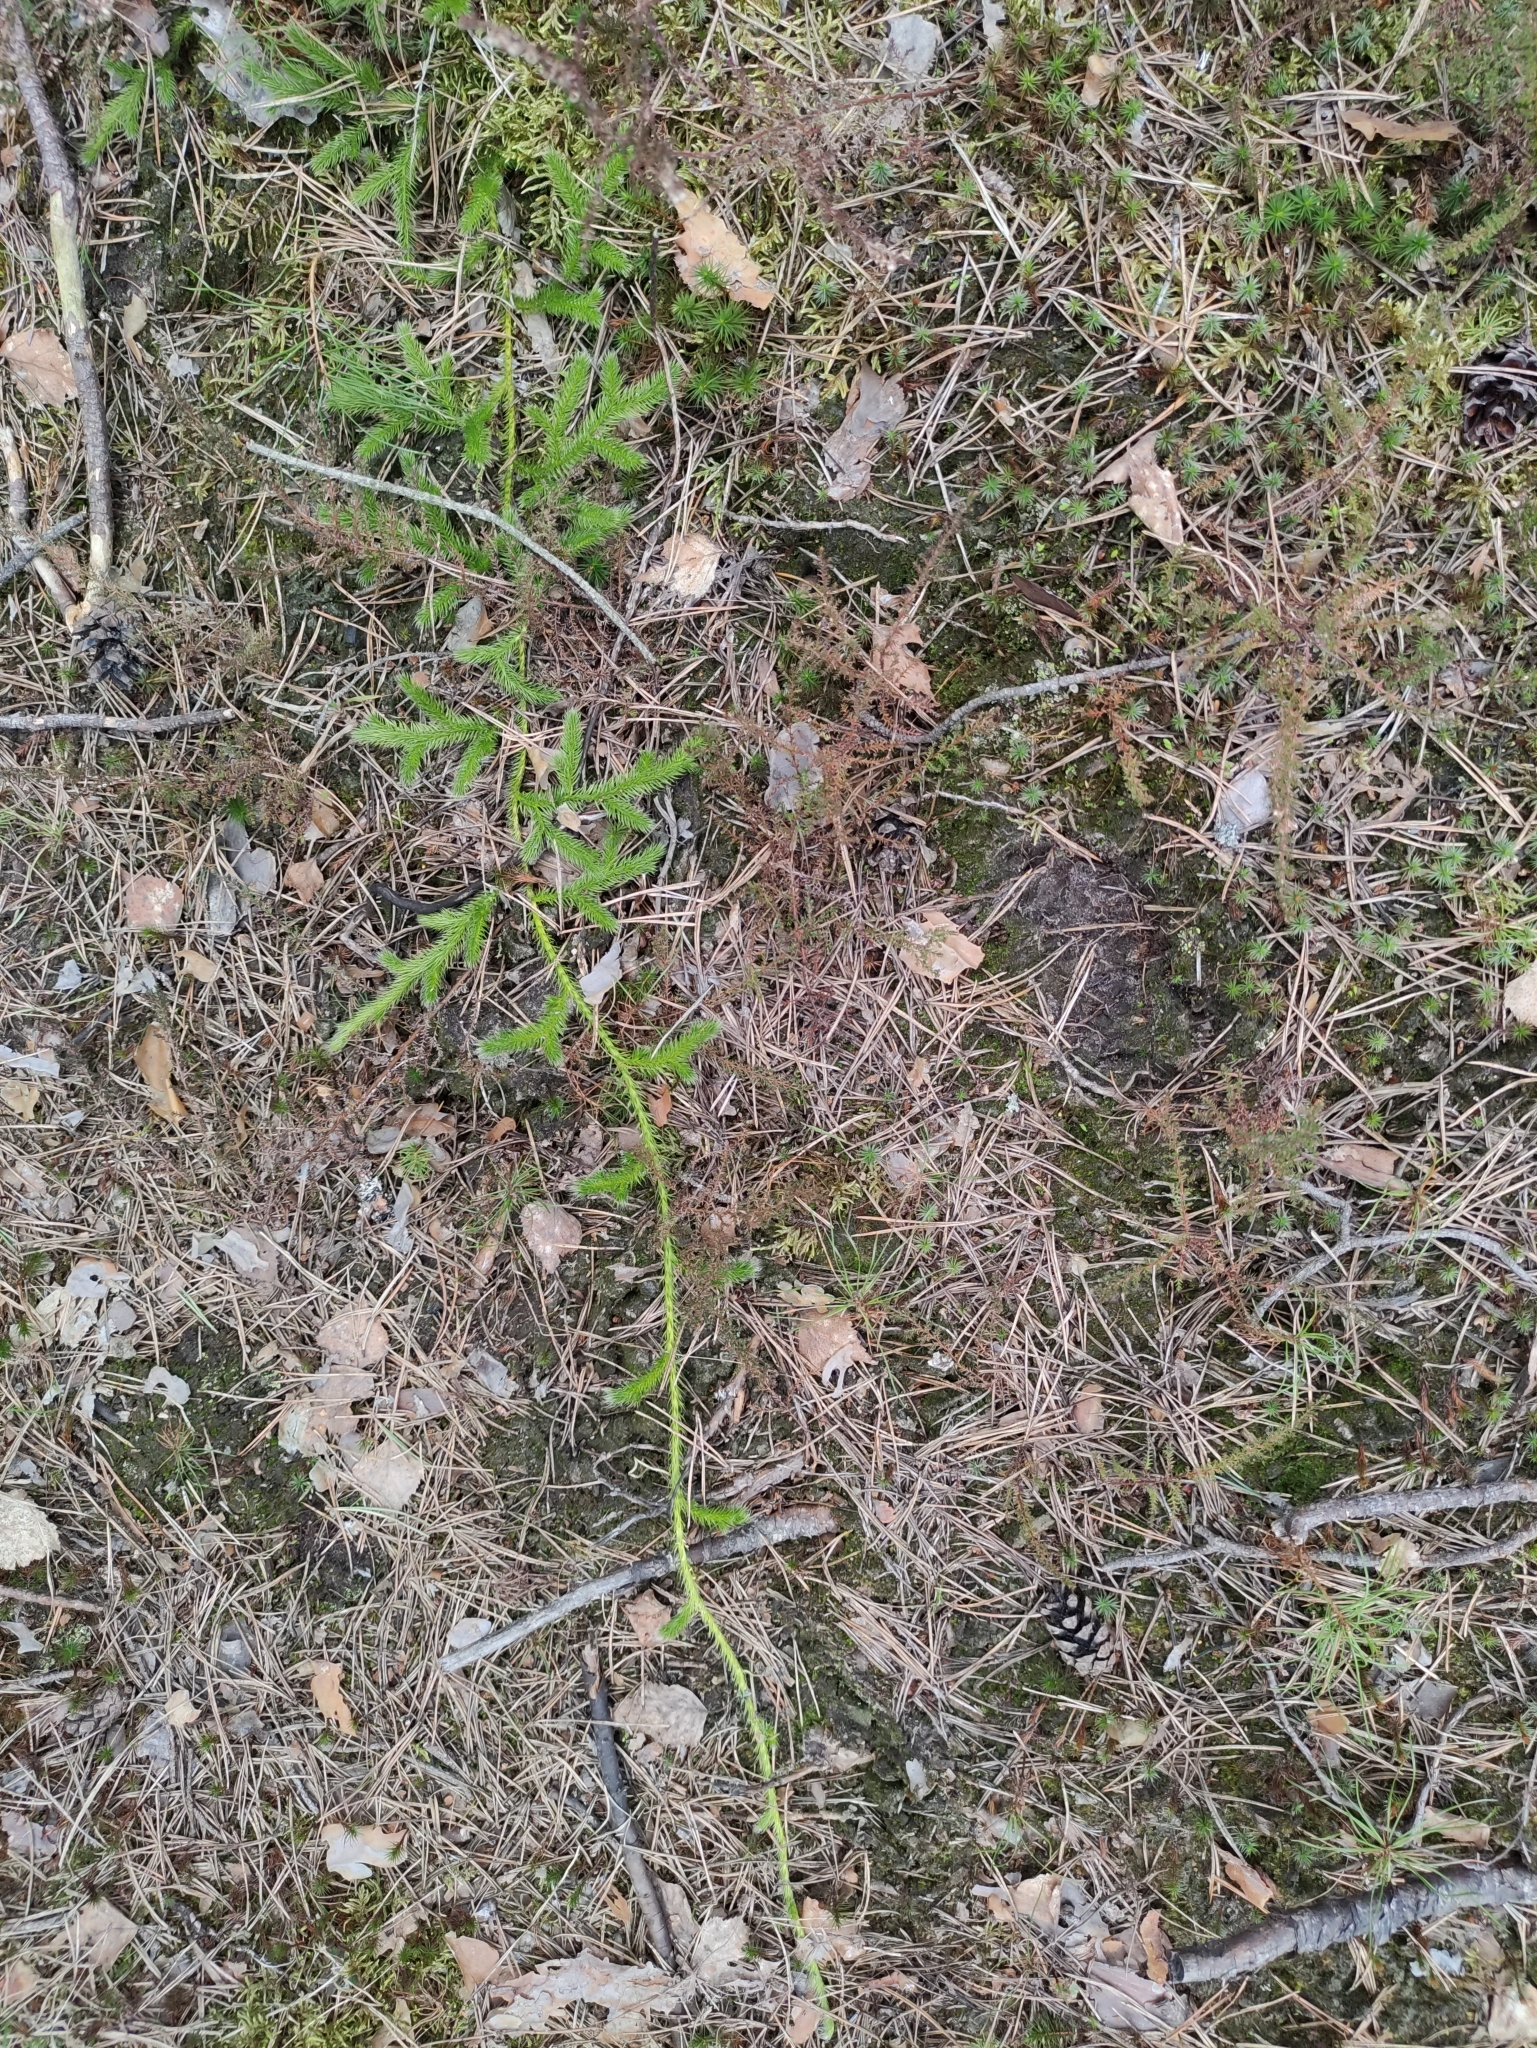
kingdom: Plantae
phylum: Tracheophyta
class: Lycopodiopsida
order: Lycopodiales
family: Lycopodiaceae
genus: Lycopodium
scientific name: Lycopodium clavatum
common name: Stag's-horn clubmoss
